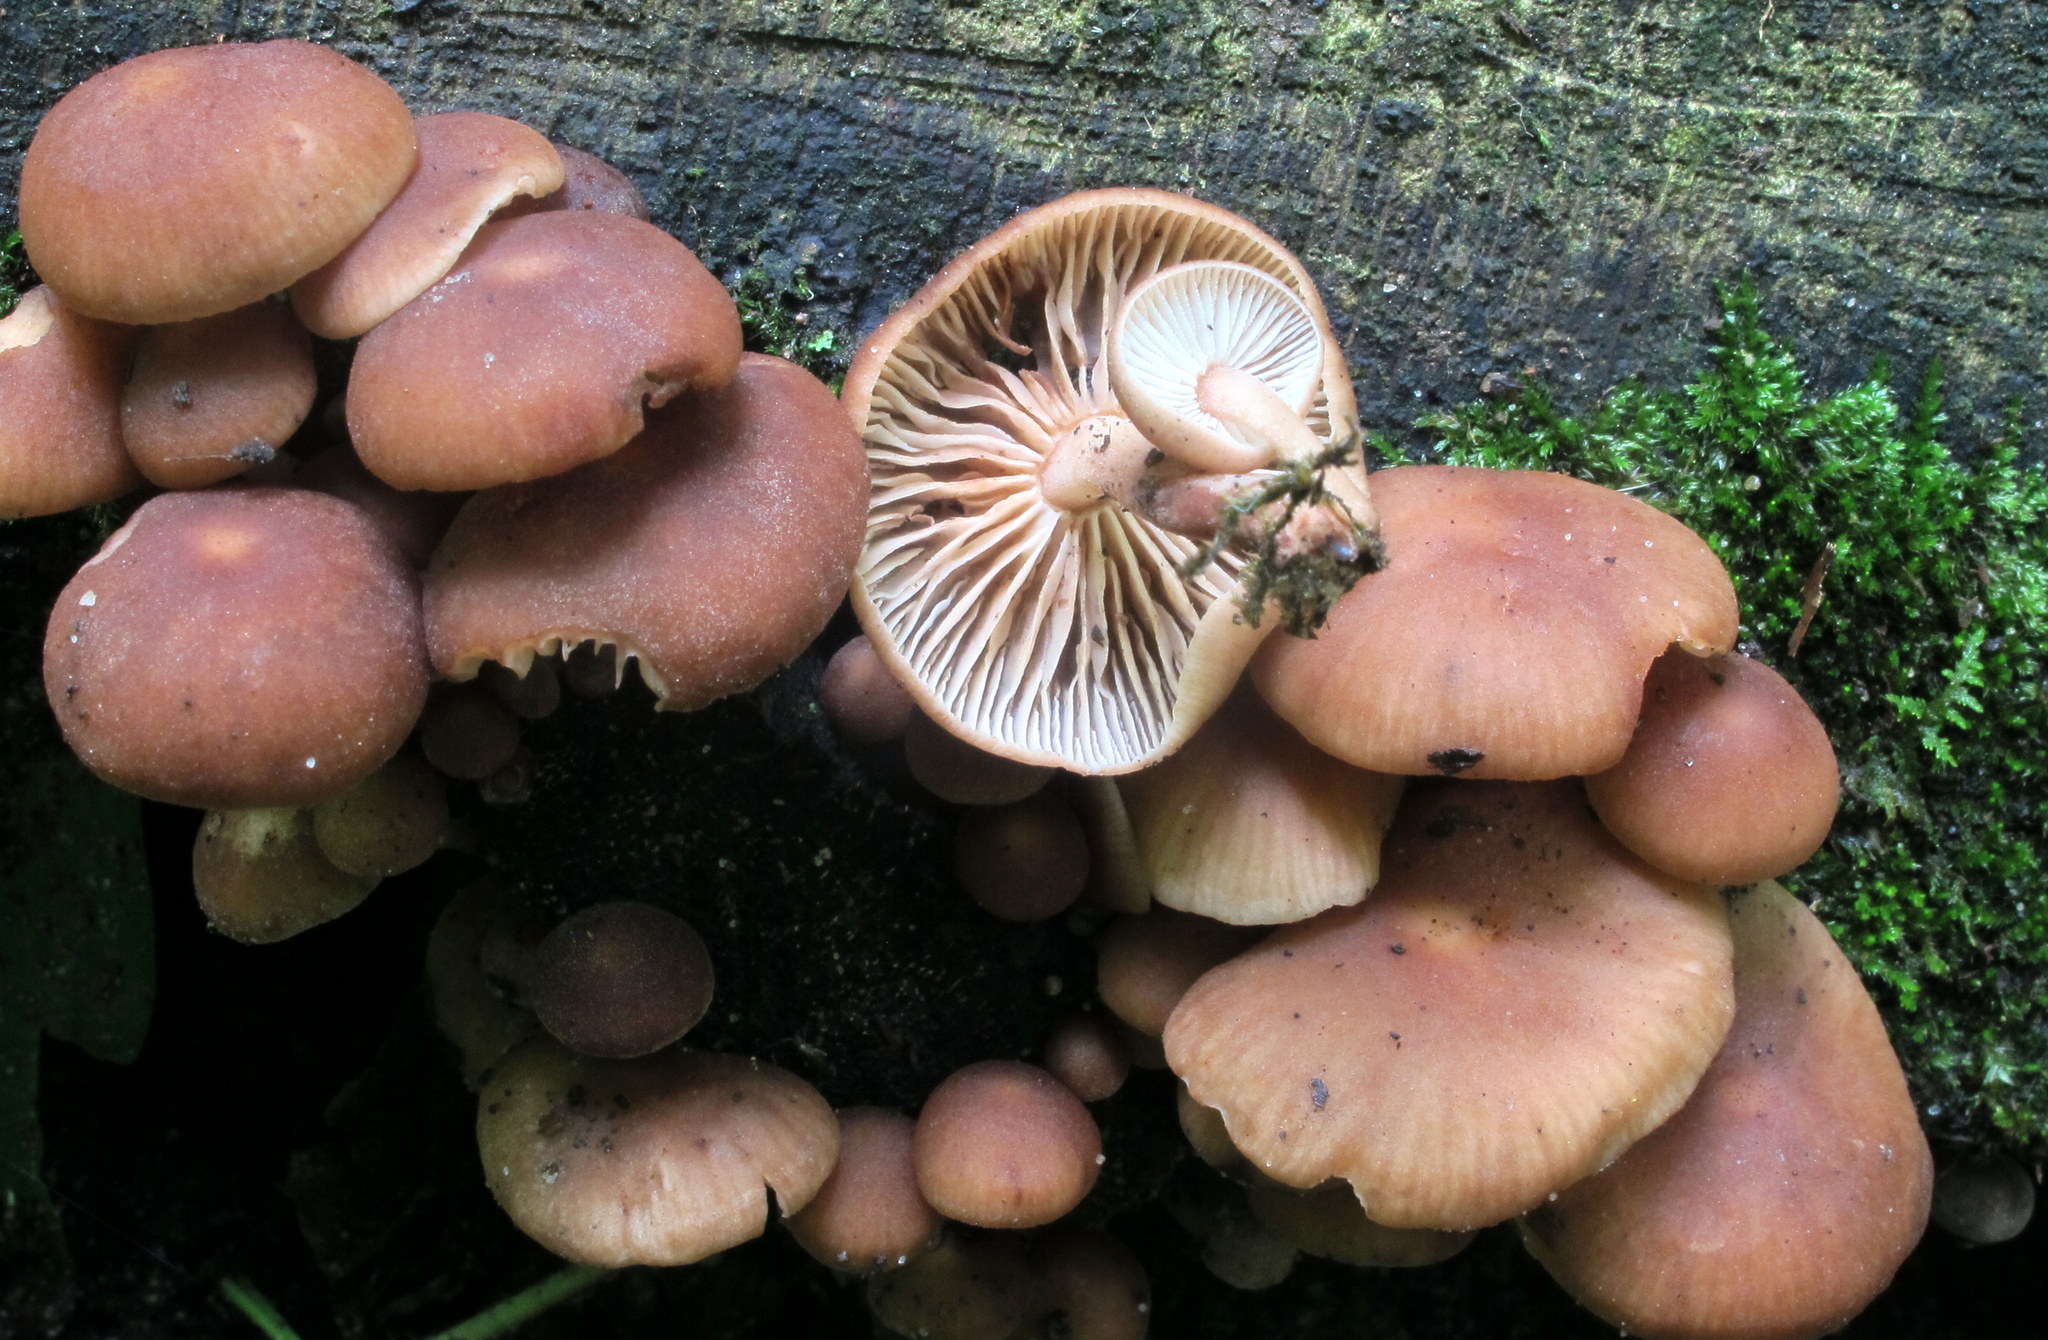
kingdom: Fungi
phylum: Basidiomycota
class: Agaricomycetes
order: Agaricales
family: Omphalotaceae
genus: Collybiopsis
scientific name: Collybiopsis dichroa
